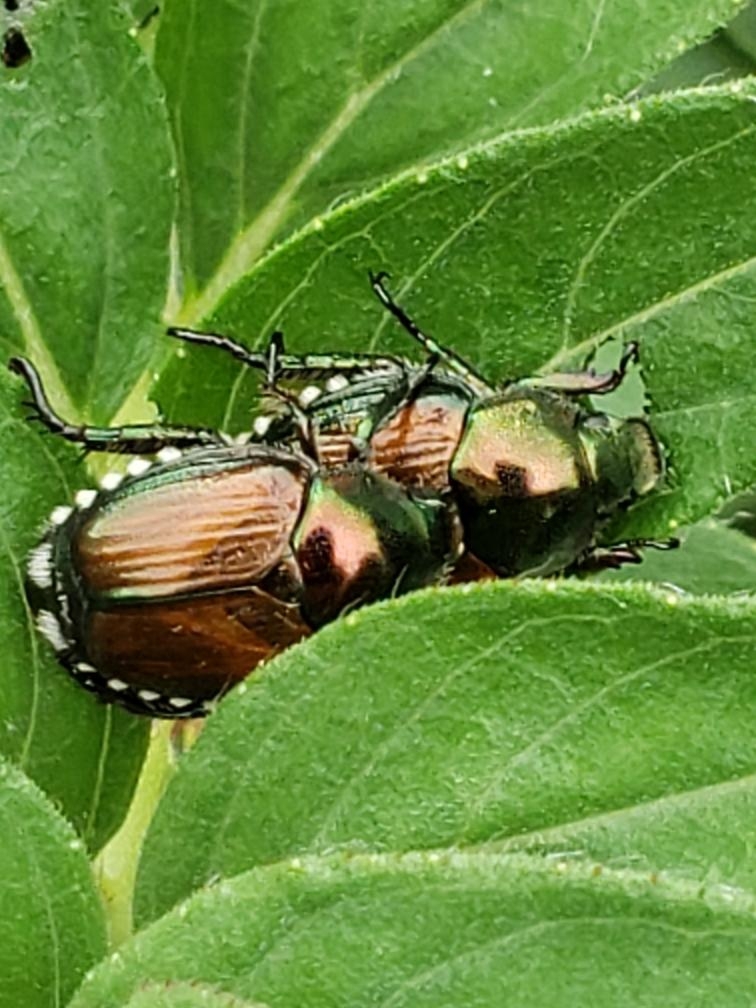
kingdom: Animalia
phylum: Arthropoda
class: Insecta
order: Coleoptera
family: Scarabaeidae
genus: Popillia
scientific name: Popillia japonica
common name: Japanese beetle
